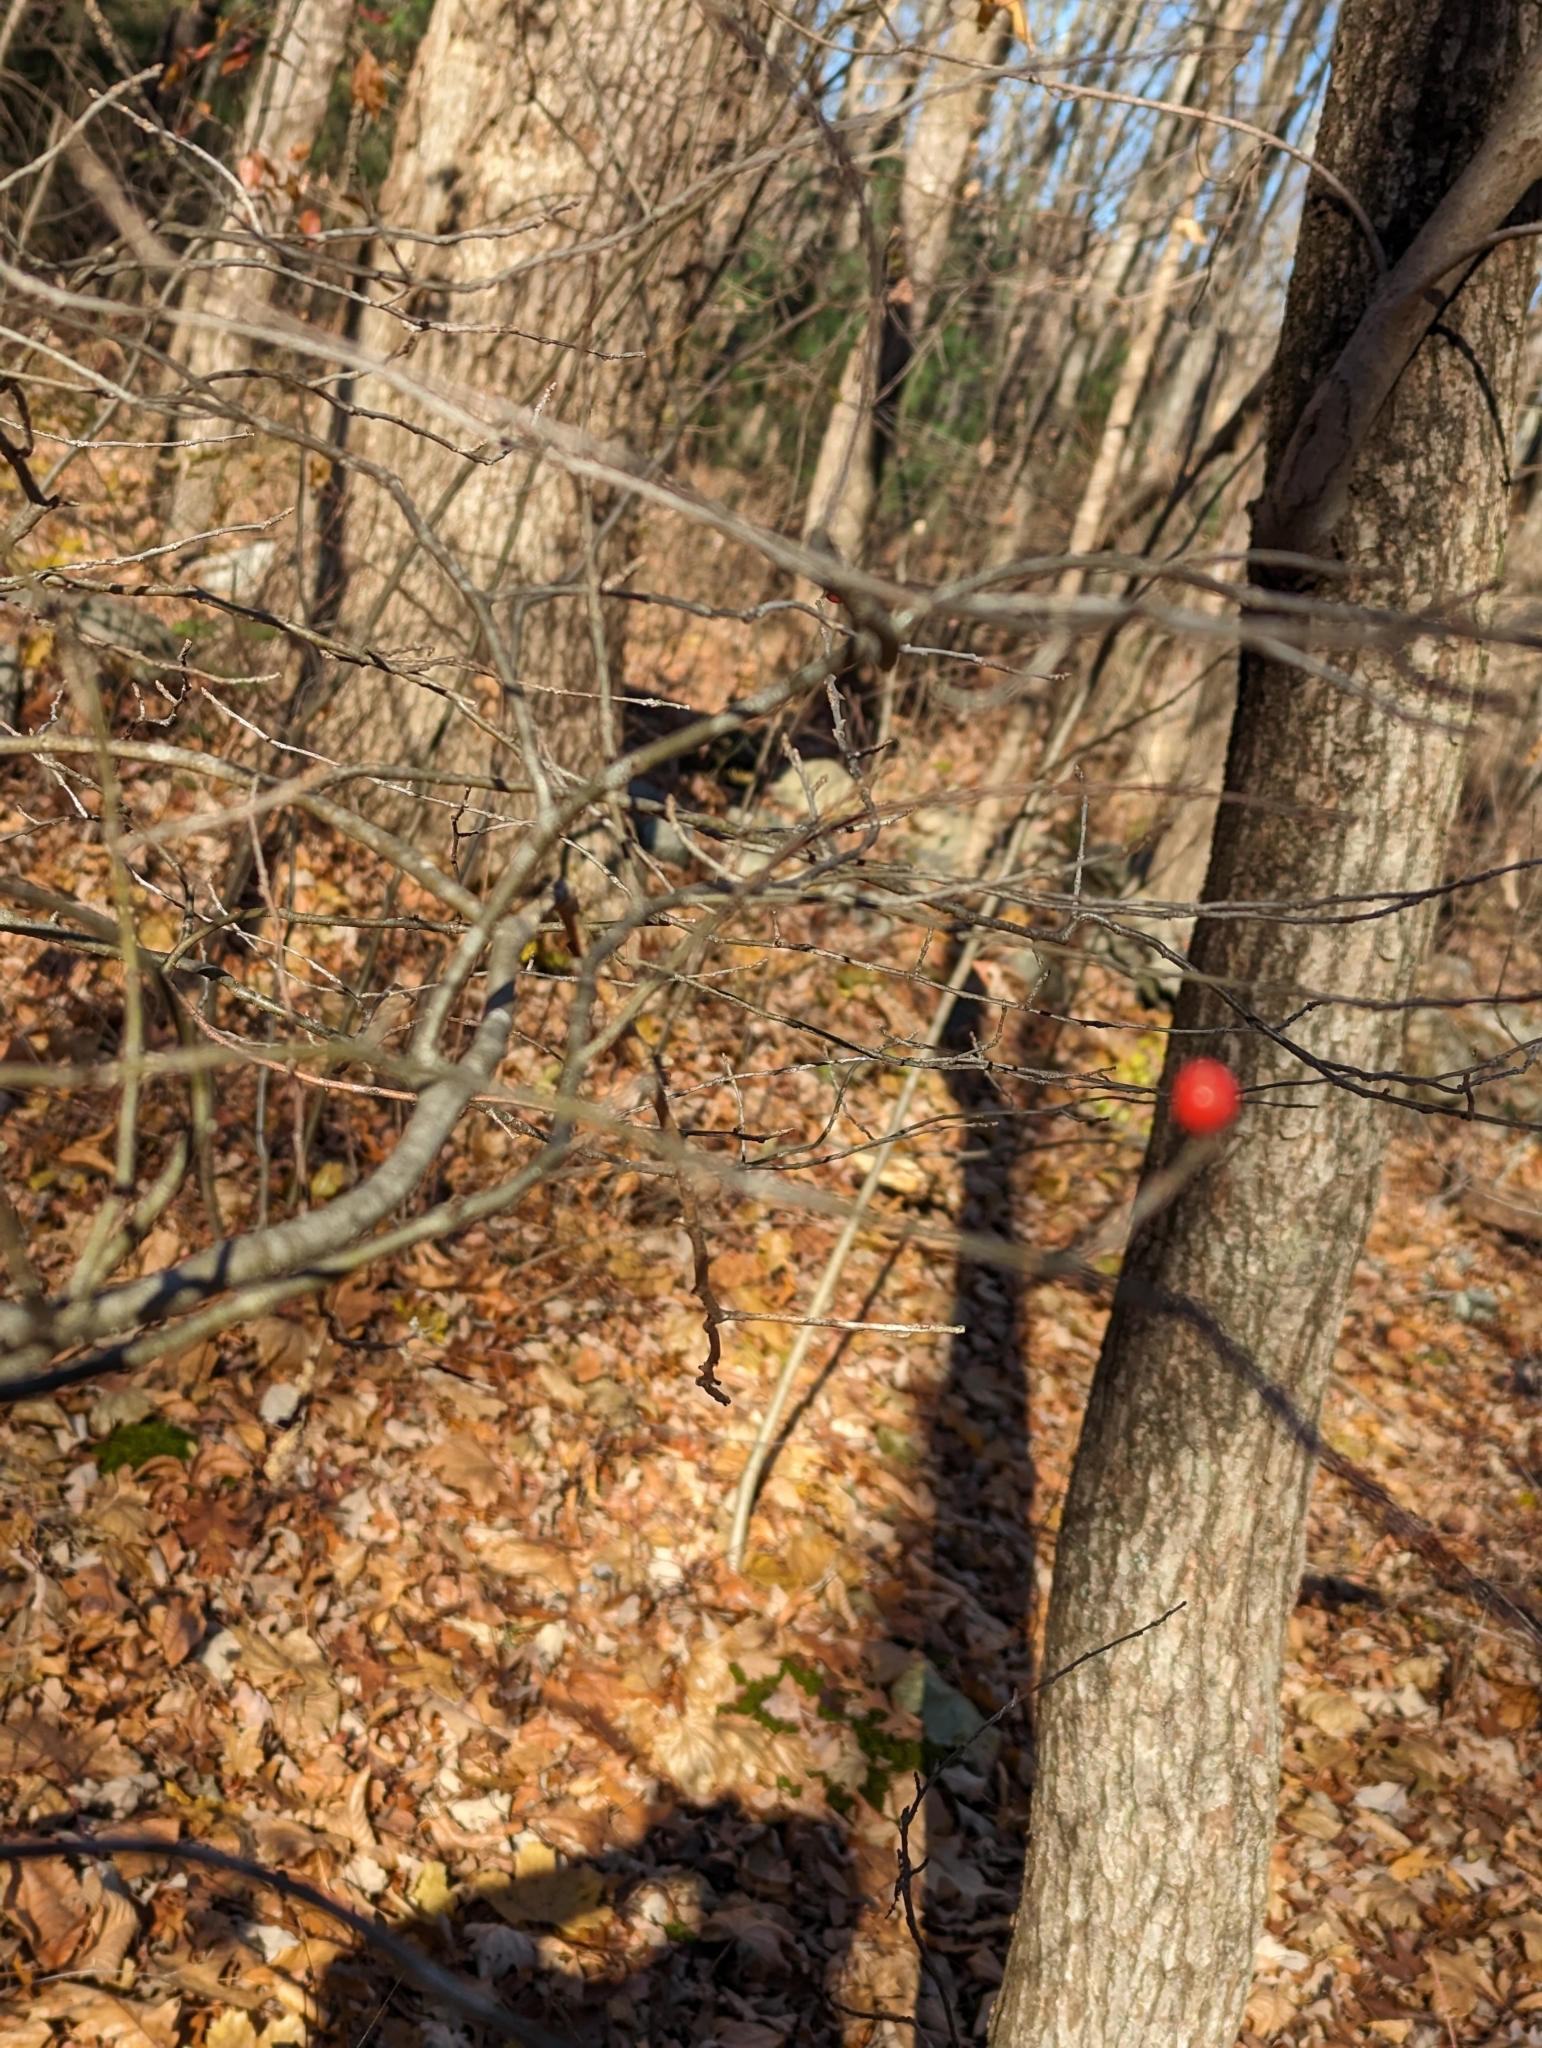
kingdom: Plantae
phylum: Tracheophyta
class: Magnoliopsida
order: Aquifoliales
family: Aquifoliaceae
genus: Ilex
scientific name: Ilex verticillata
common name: Virginia winterberry
